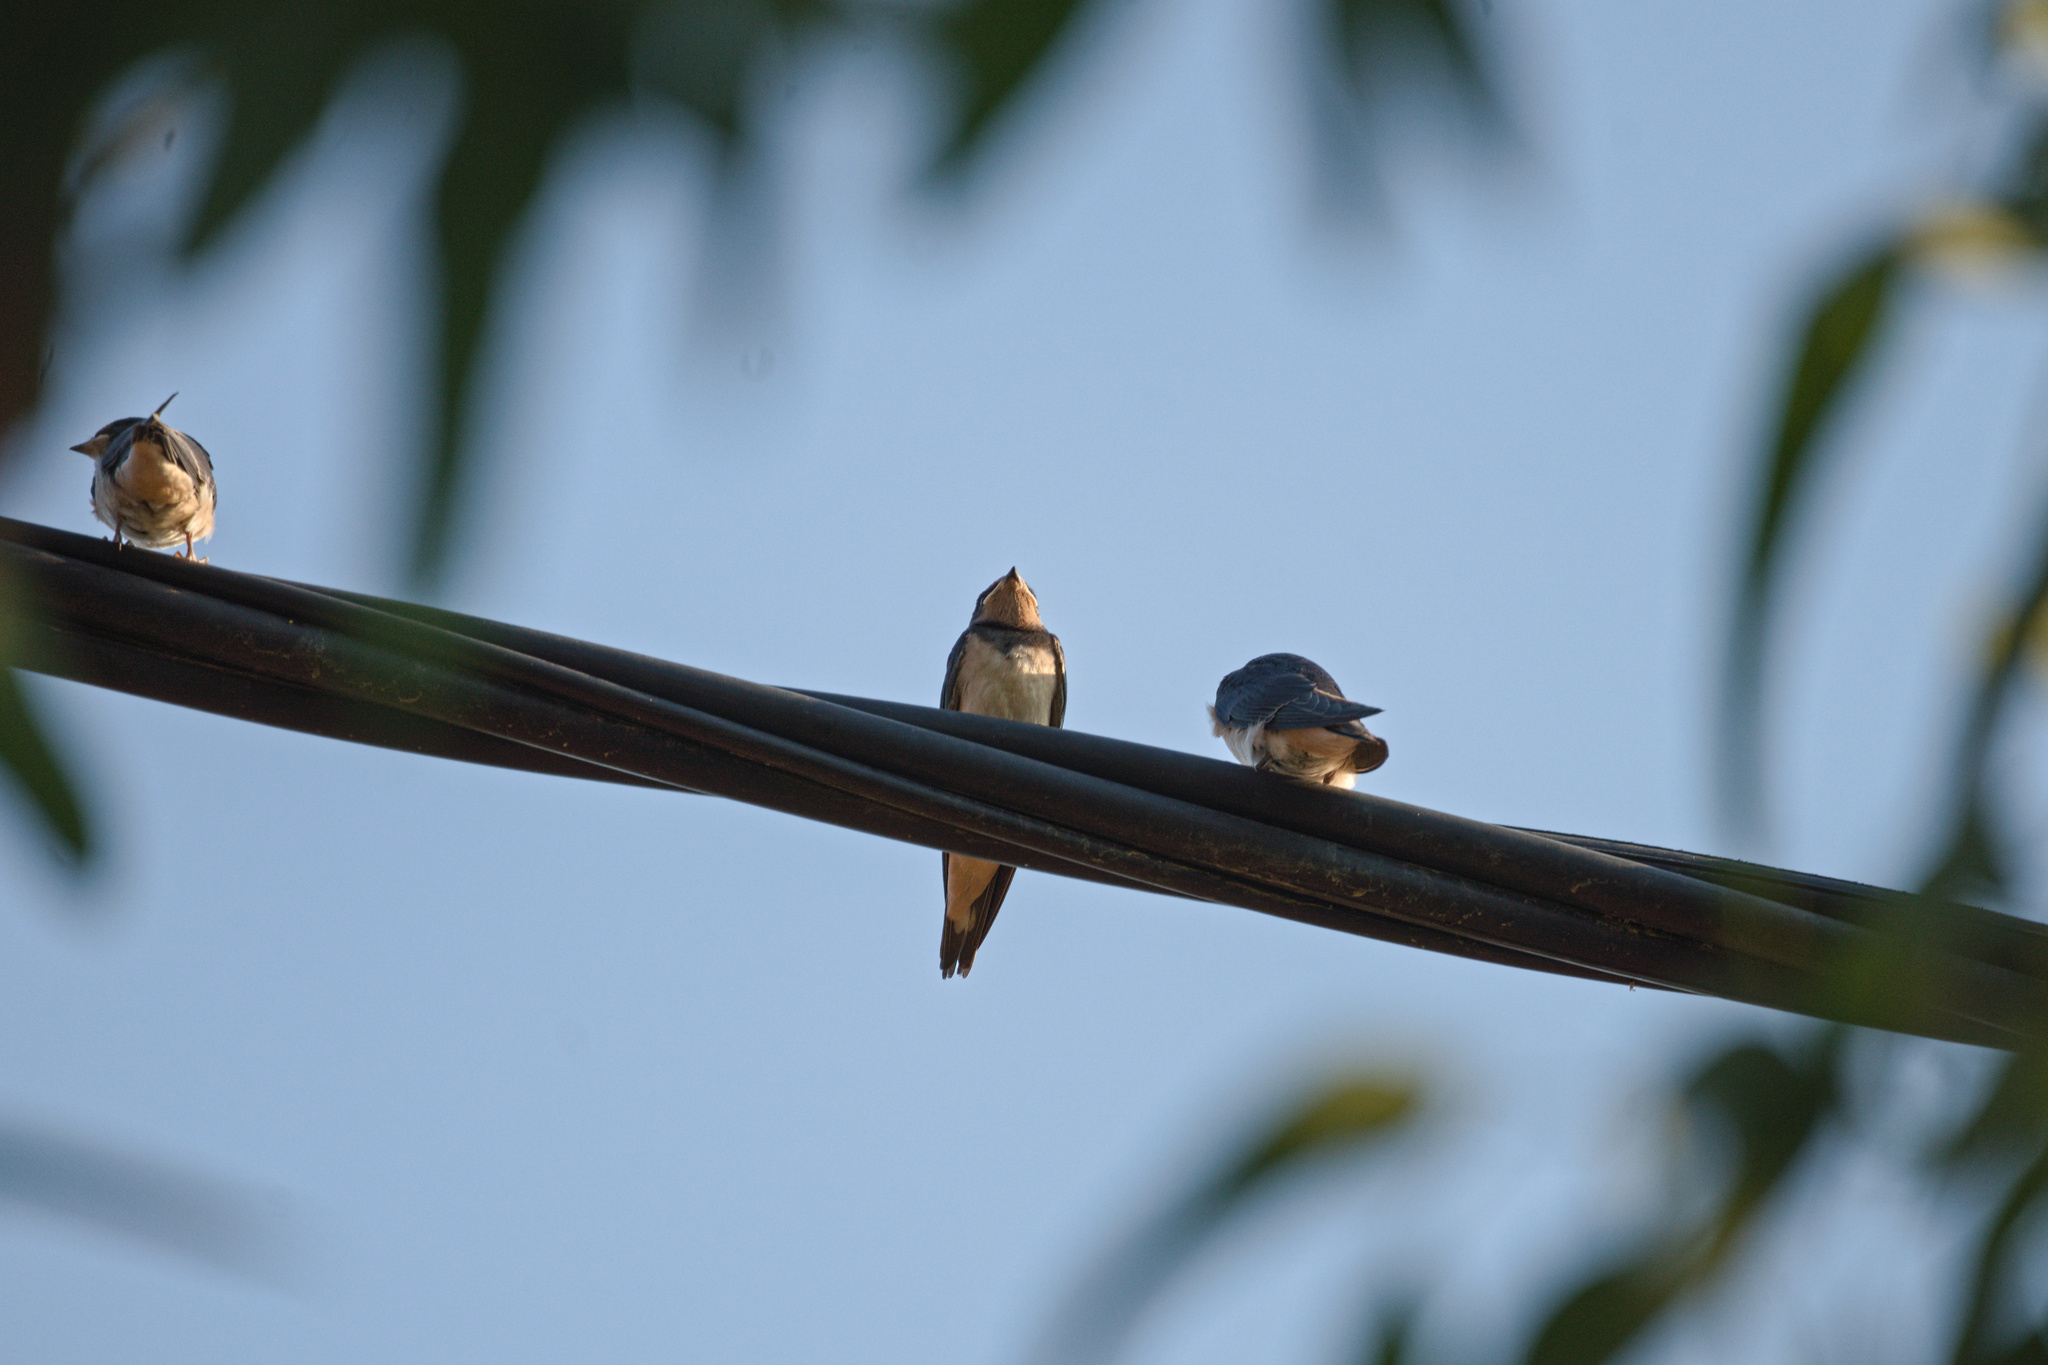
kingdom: Animalia
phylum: Chordata
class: Aves
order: Passeriformes
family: Hirundinidae
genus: Hirundo
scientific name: Hirundo rustica
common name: Barn swallow
